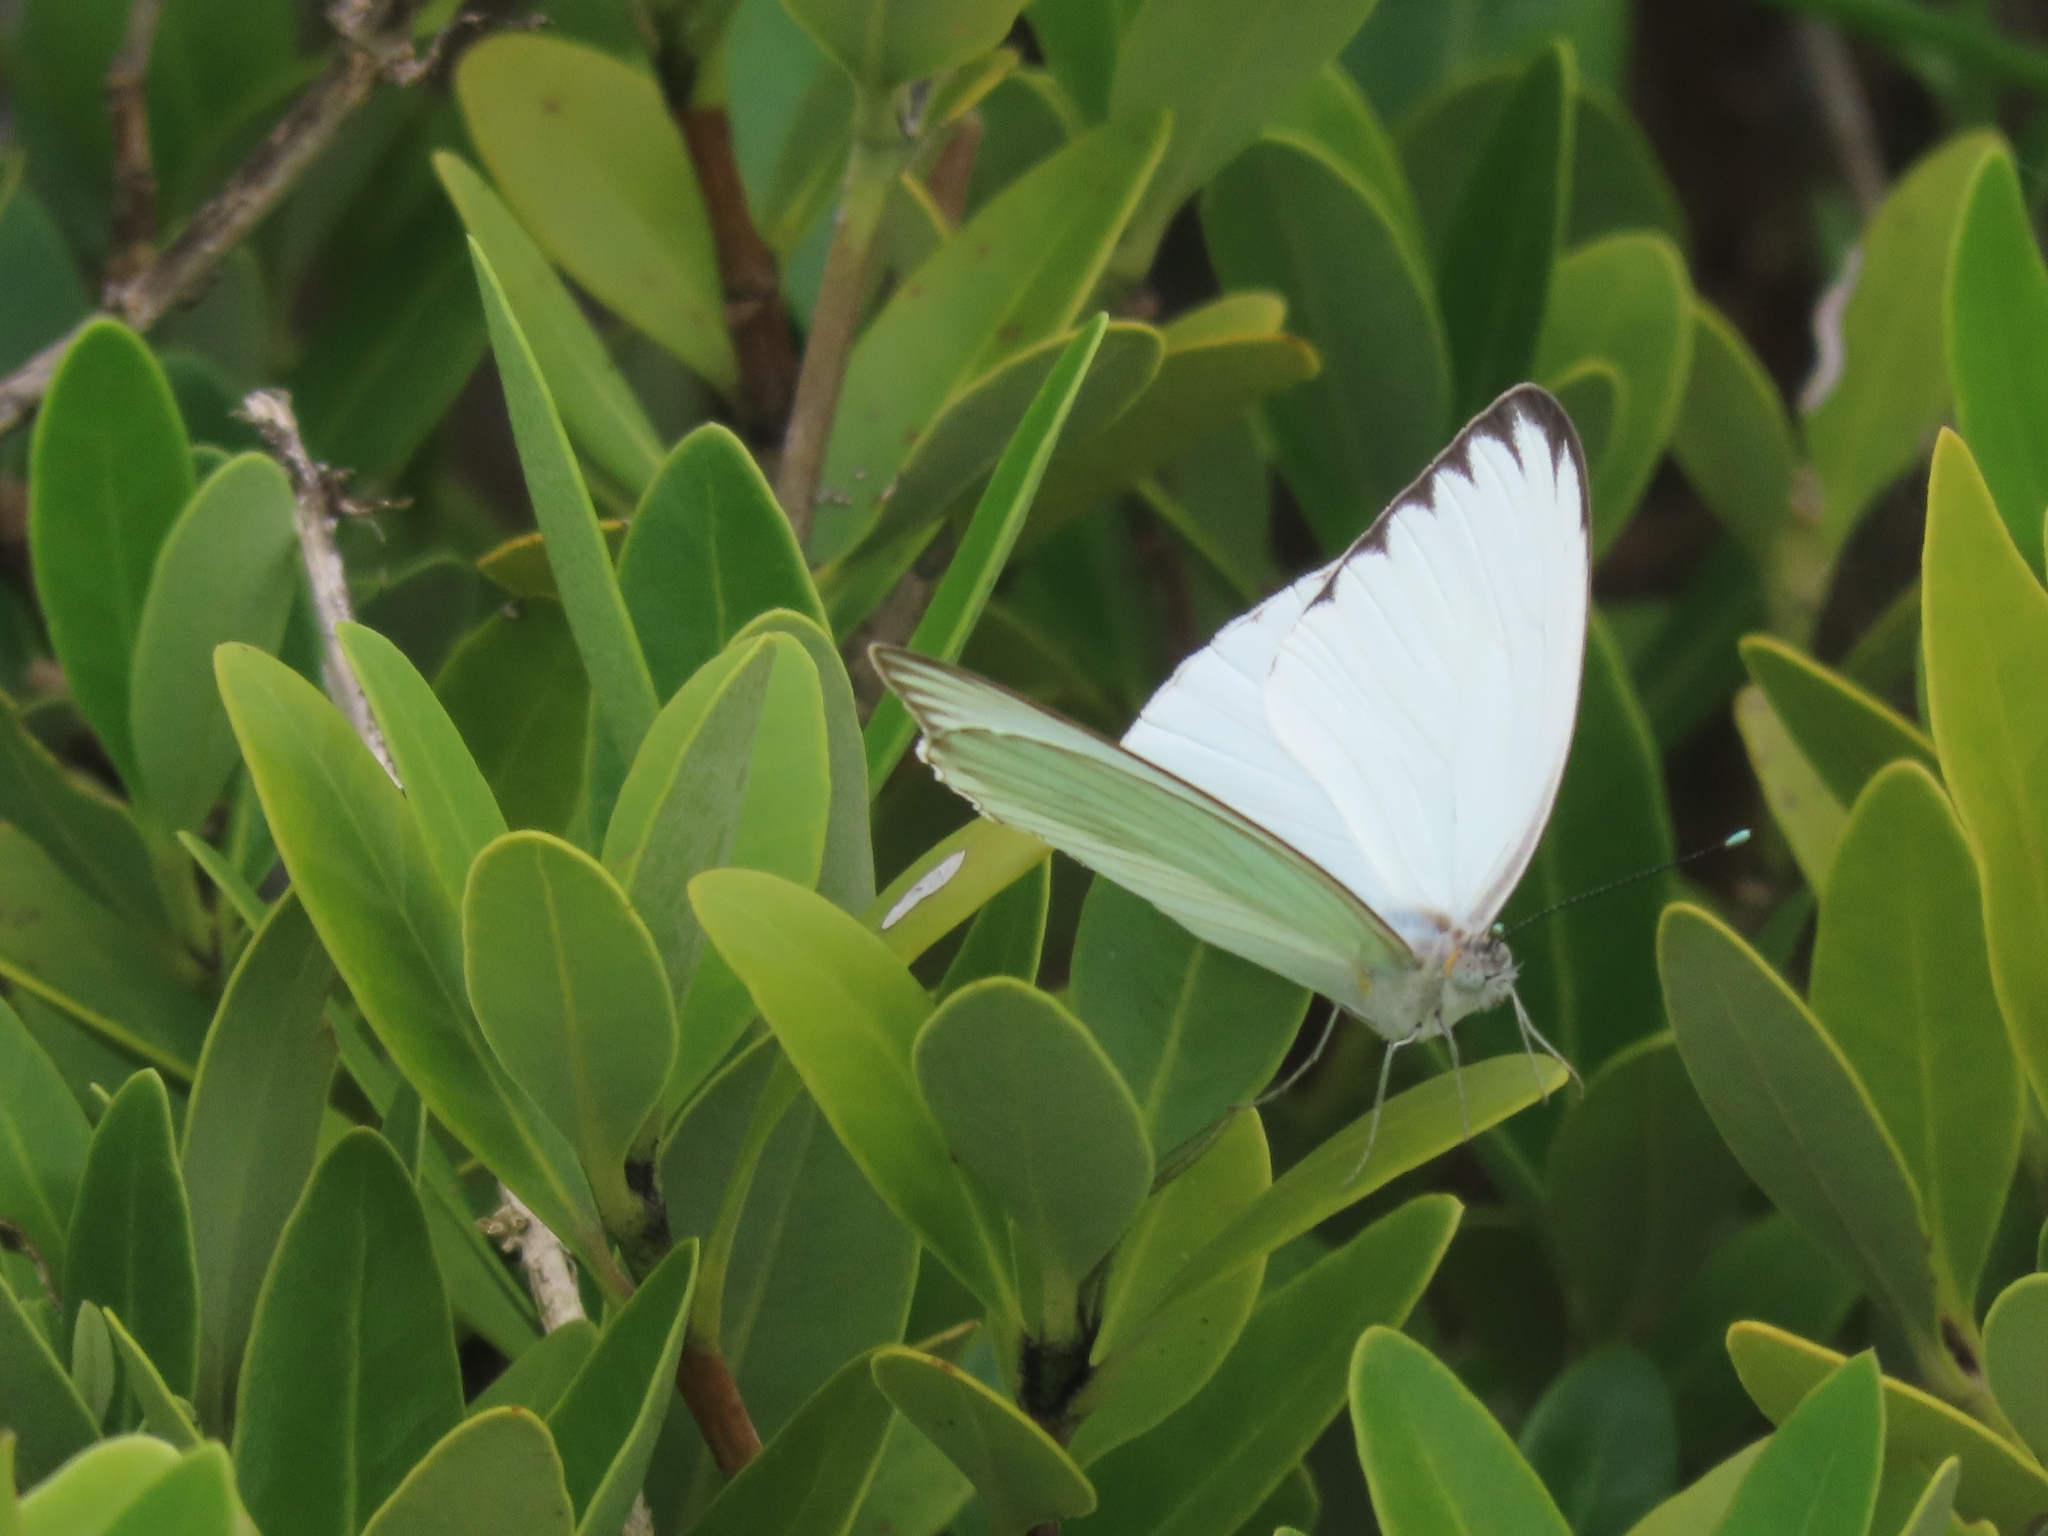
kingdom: Animalia
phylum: Arthropoda
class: Insecta
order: Lepidoptera
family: Pieridae
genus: Ascia
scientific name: Ascia monuste
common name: Great southern white
